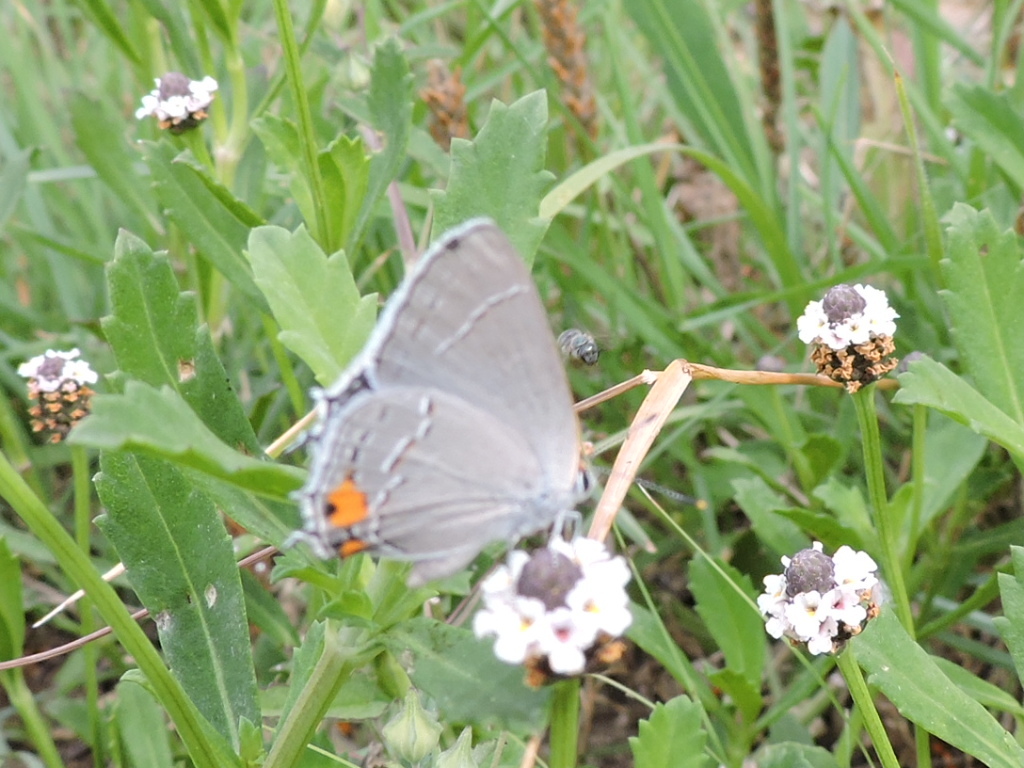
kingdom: Animalia
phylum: Arthropoda
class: Insecta
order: Lepidoptera
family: Lycaenidae
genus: Strymon
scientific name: Strymon melinus
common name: Gray hairstreak
